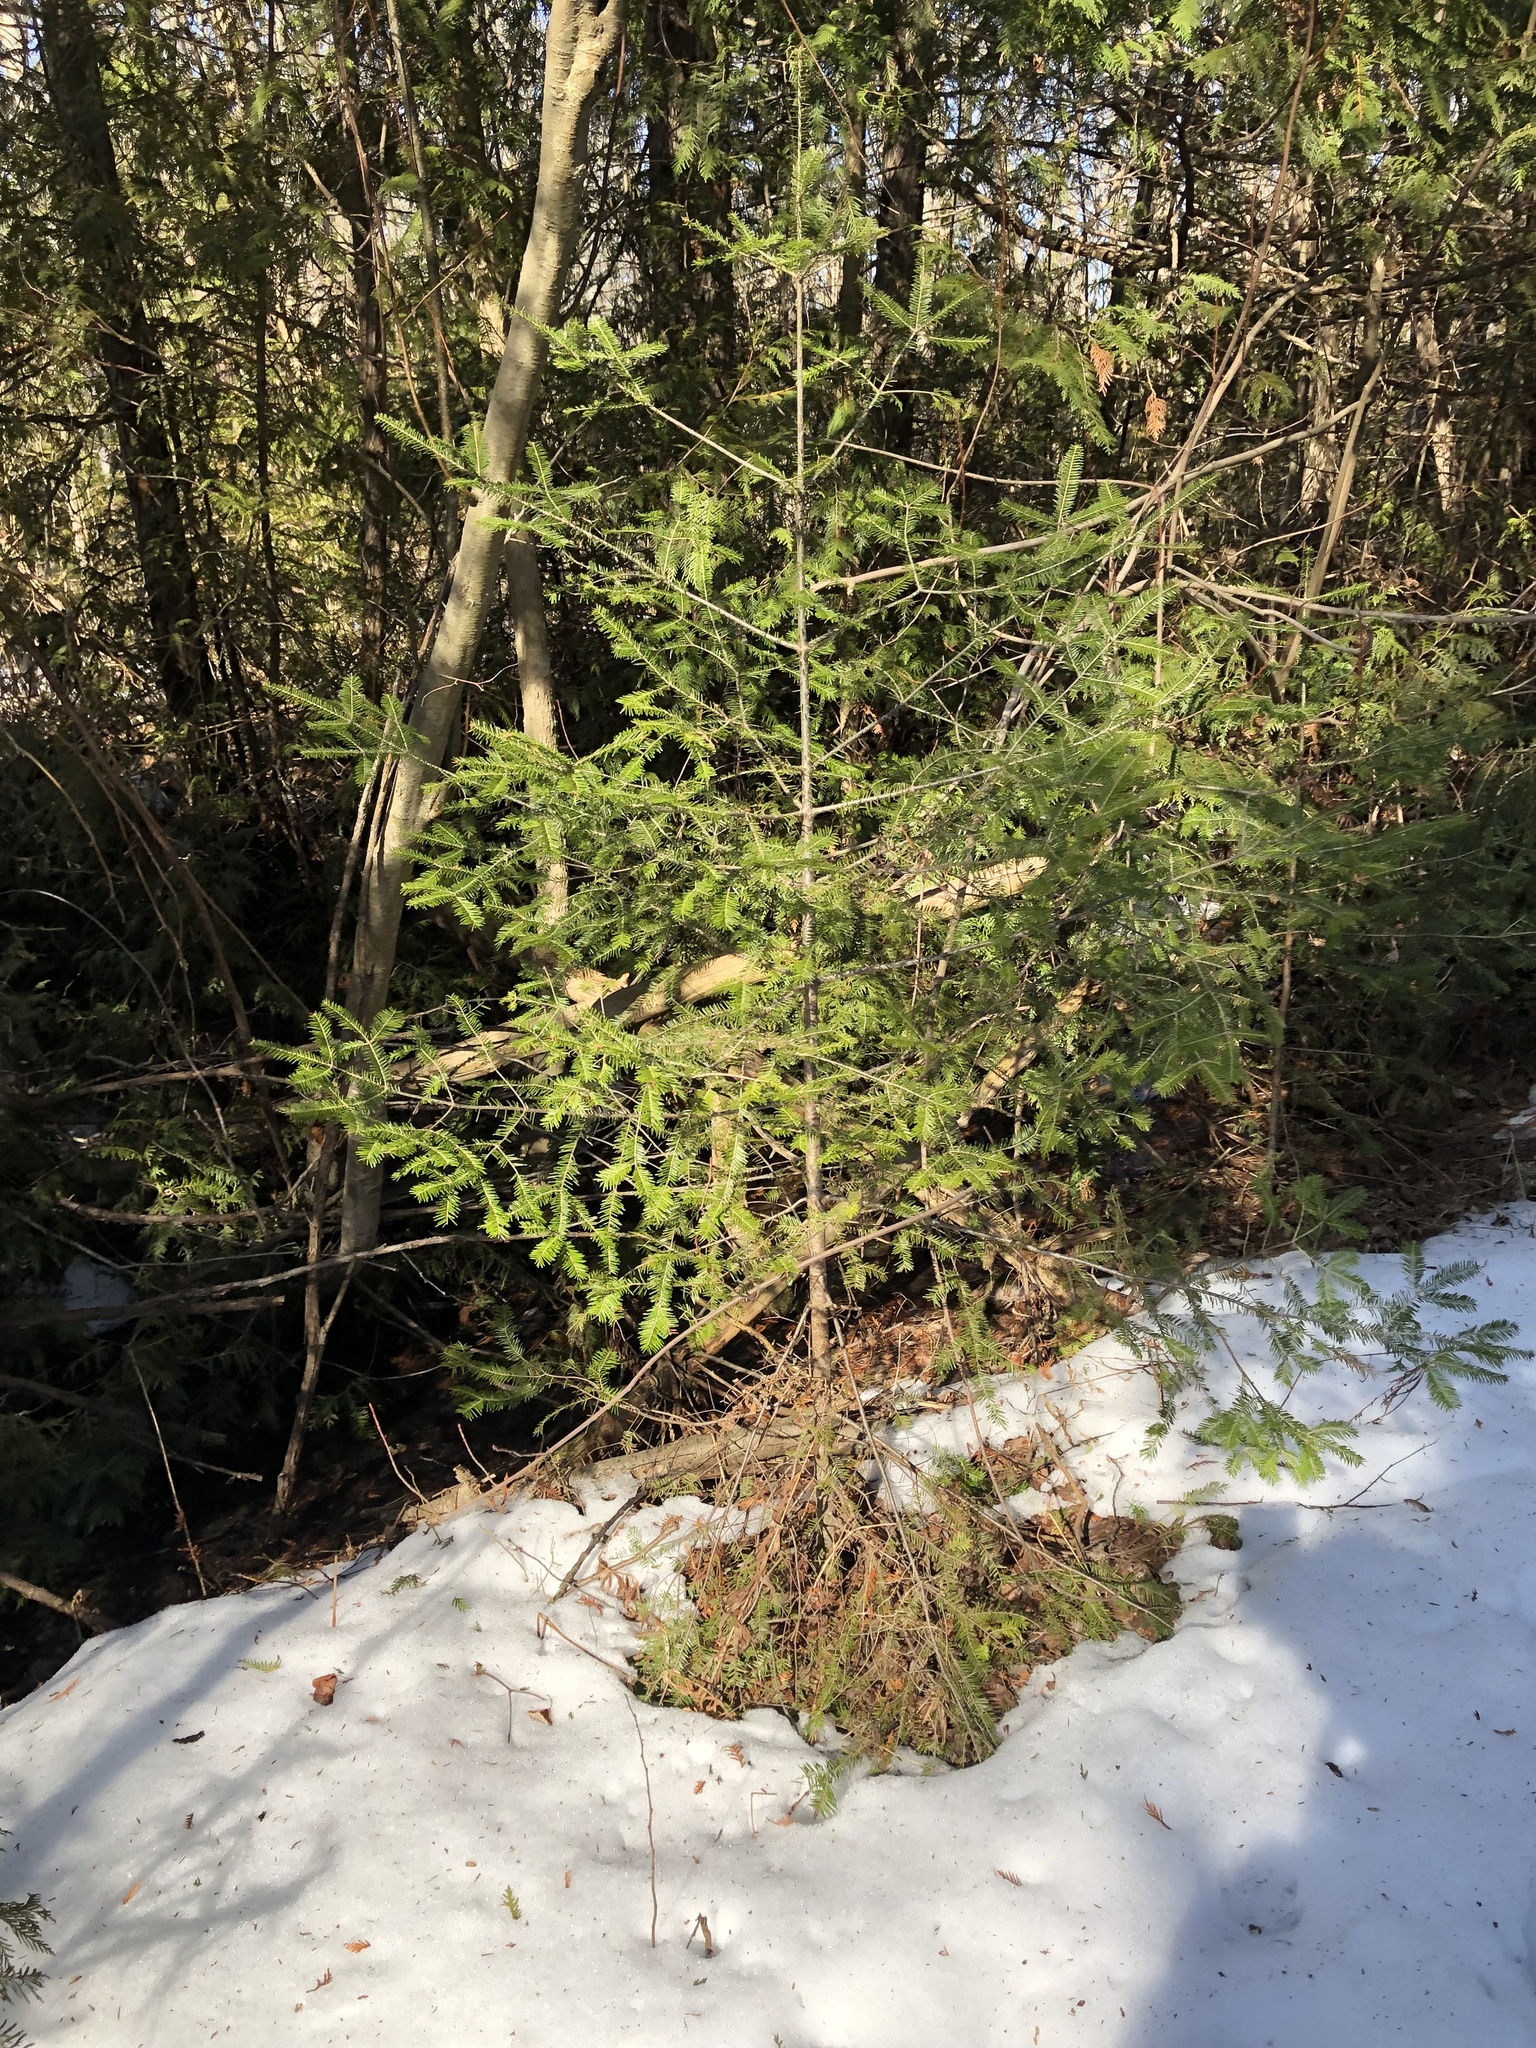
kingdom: Plantae
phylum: Tracheophyta
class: Pinopsida
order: Pinales
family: Pinaceae
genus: Abies
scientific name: Abies balsamea
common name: Balsam fir
